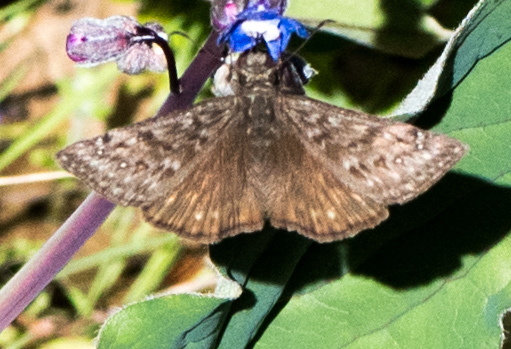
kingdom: Animalia
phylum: Arthropoda
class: Insecta
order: Lepidoptera
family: Hesperiidae
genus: Erynnis
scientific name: Erynnis propertius
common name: Propertius duskywing
